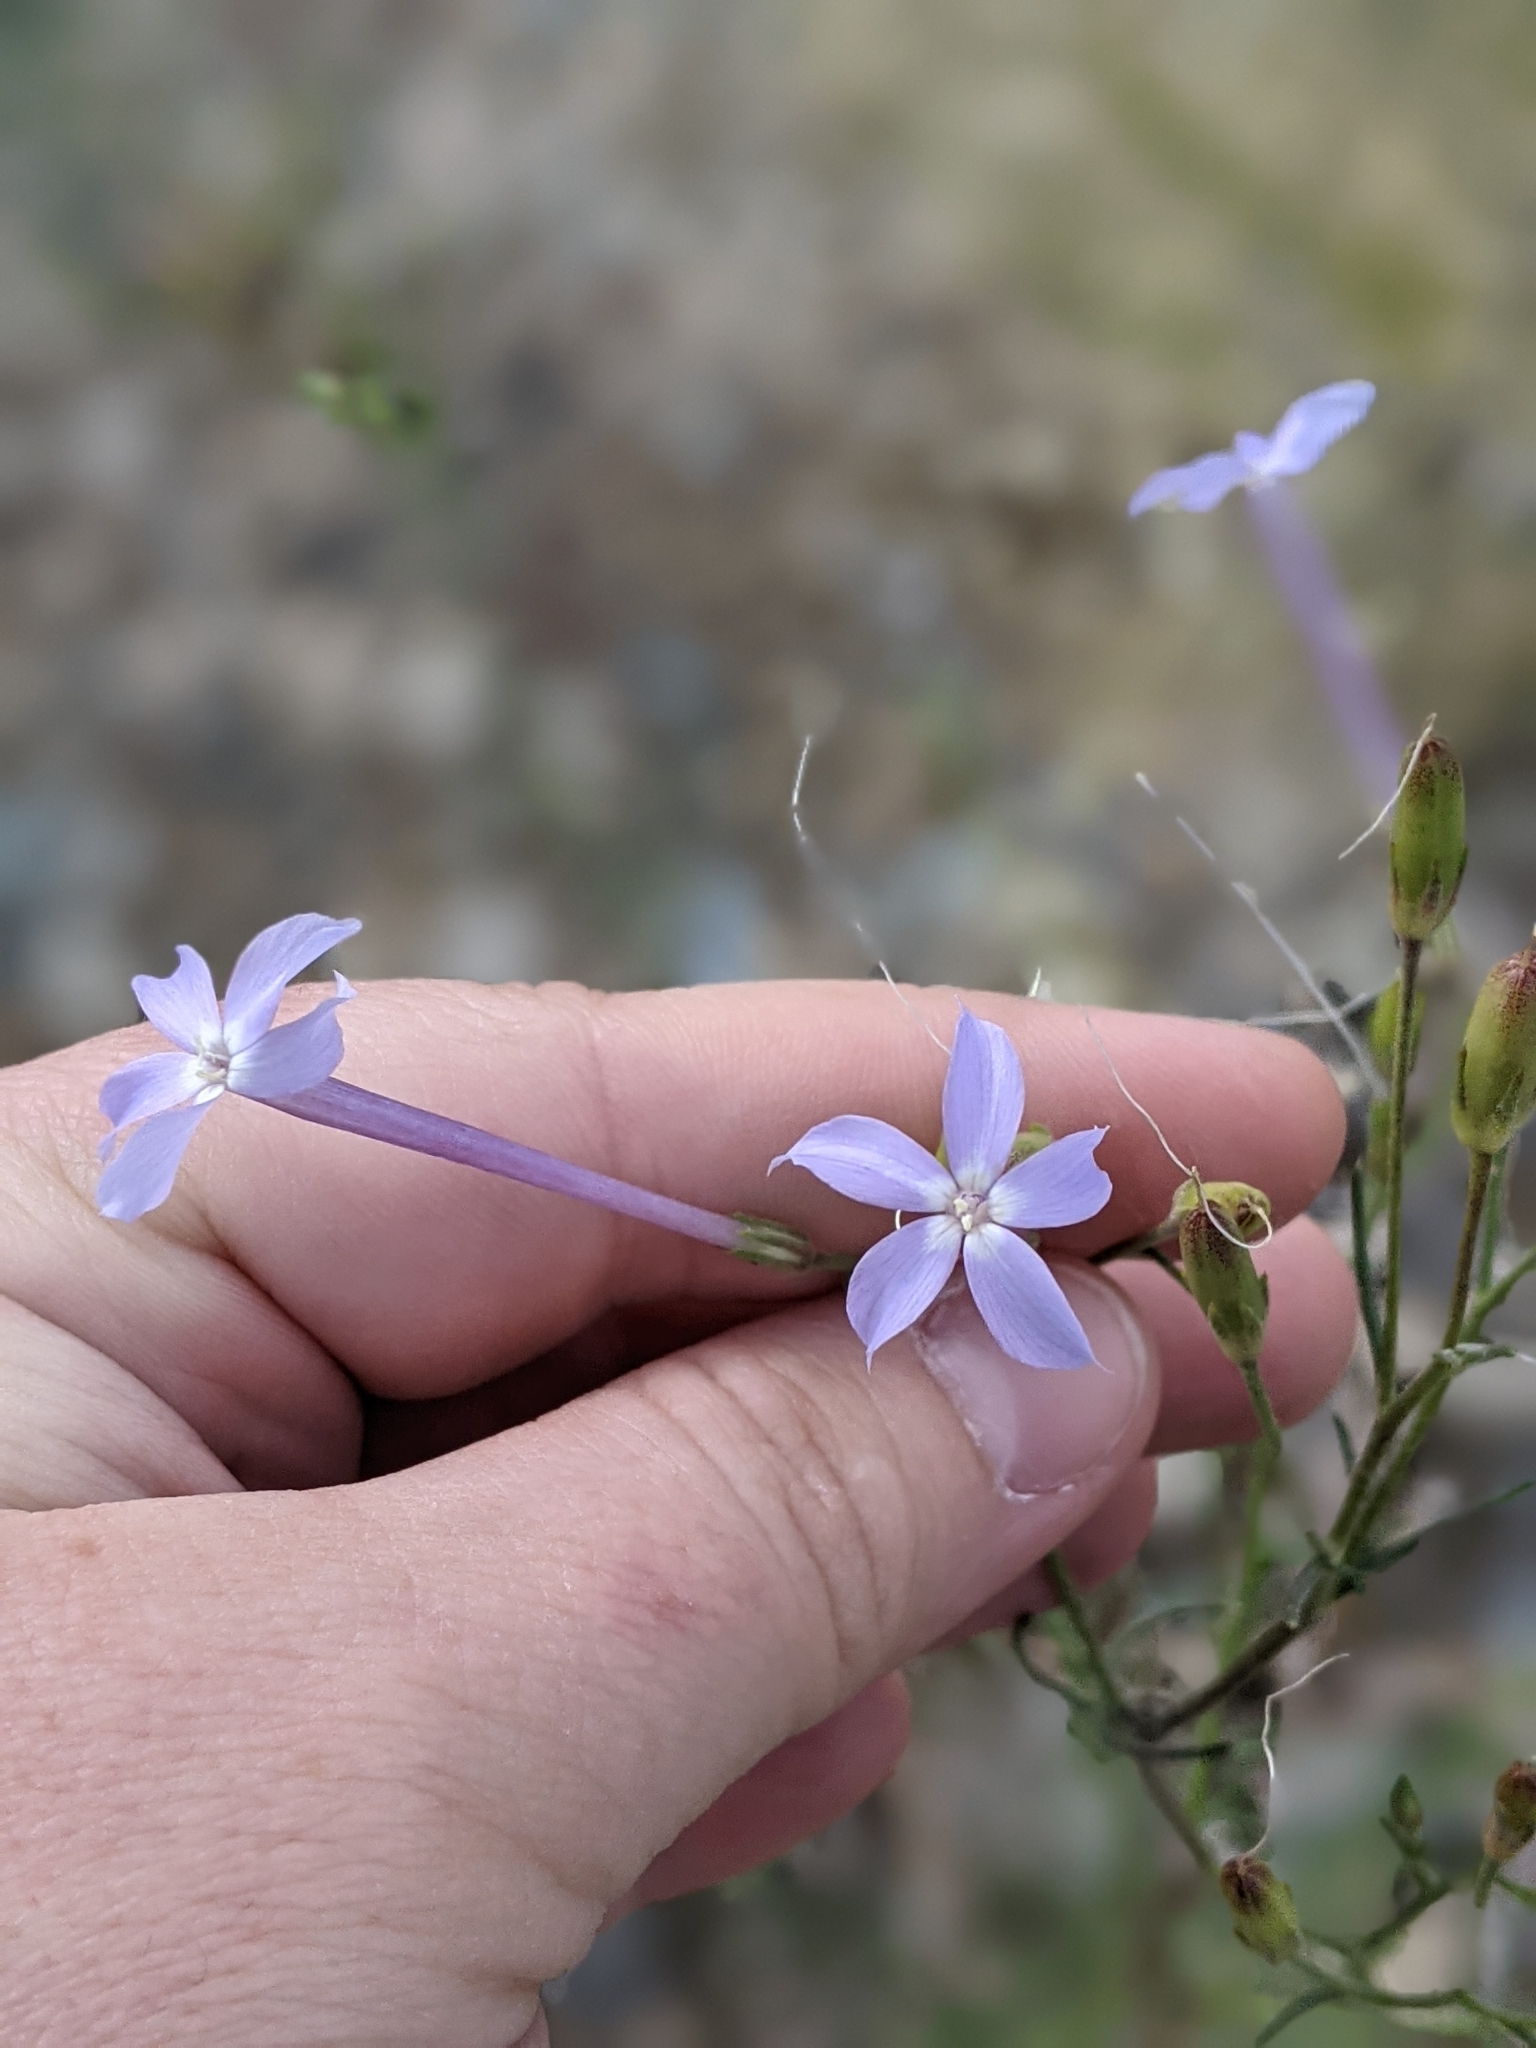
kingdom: Plantae
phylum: Tracheophyta
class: Magnoliopsida
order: Ericales
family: Polemoniaceae
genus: Ipomopsis
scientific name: Ipomopsis longiflora
